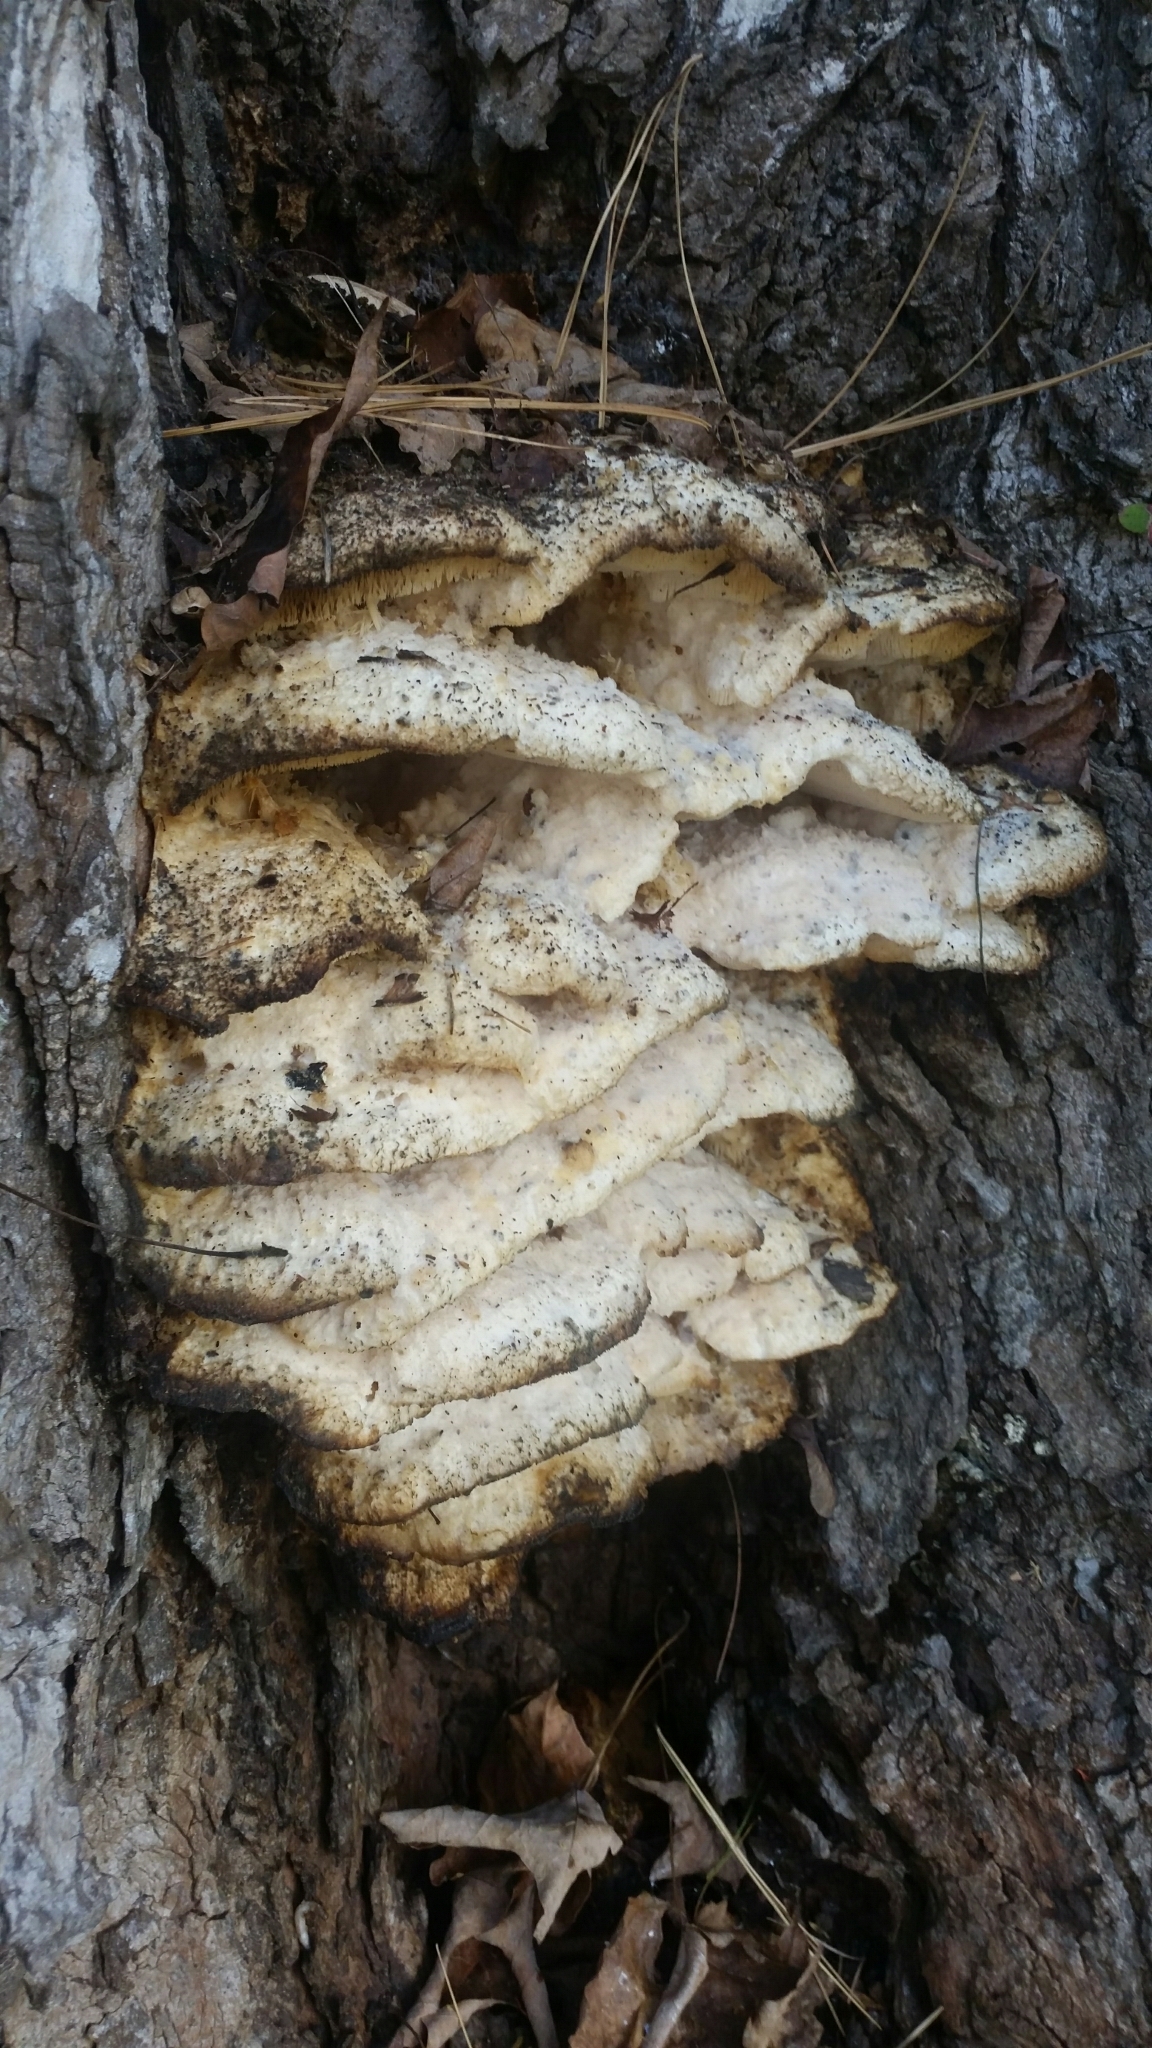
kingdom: Fungi
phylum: Basidiomycota
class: Agaricomycetes
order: Polyporales
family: Meruliaceae
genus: Climacodon
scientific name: Climacodon septentrionalis
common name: Northern tooth
